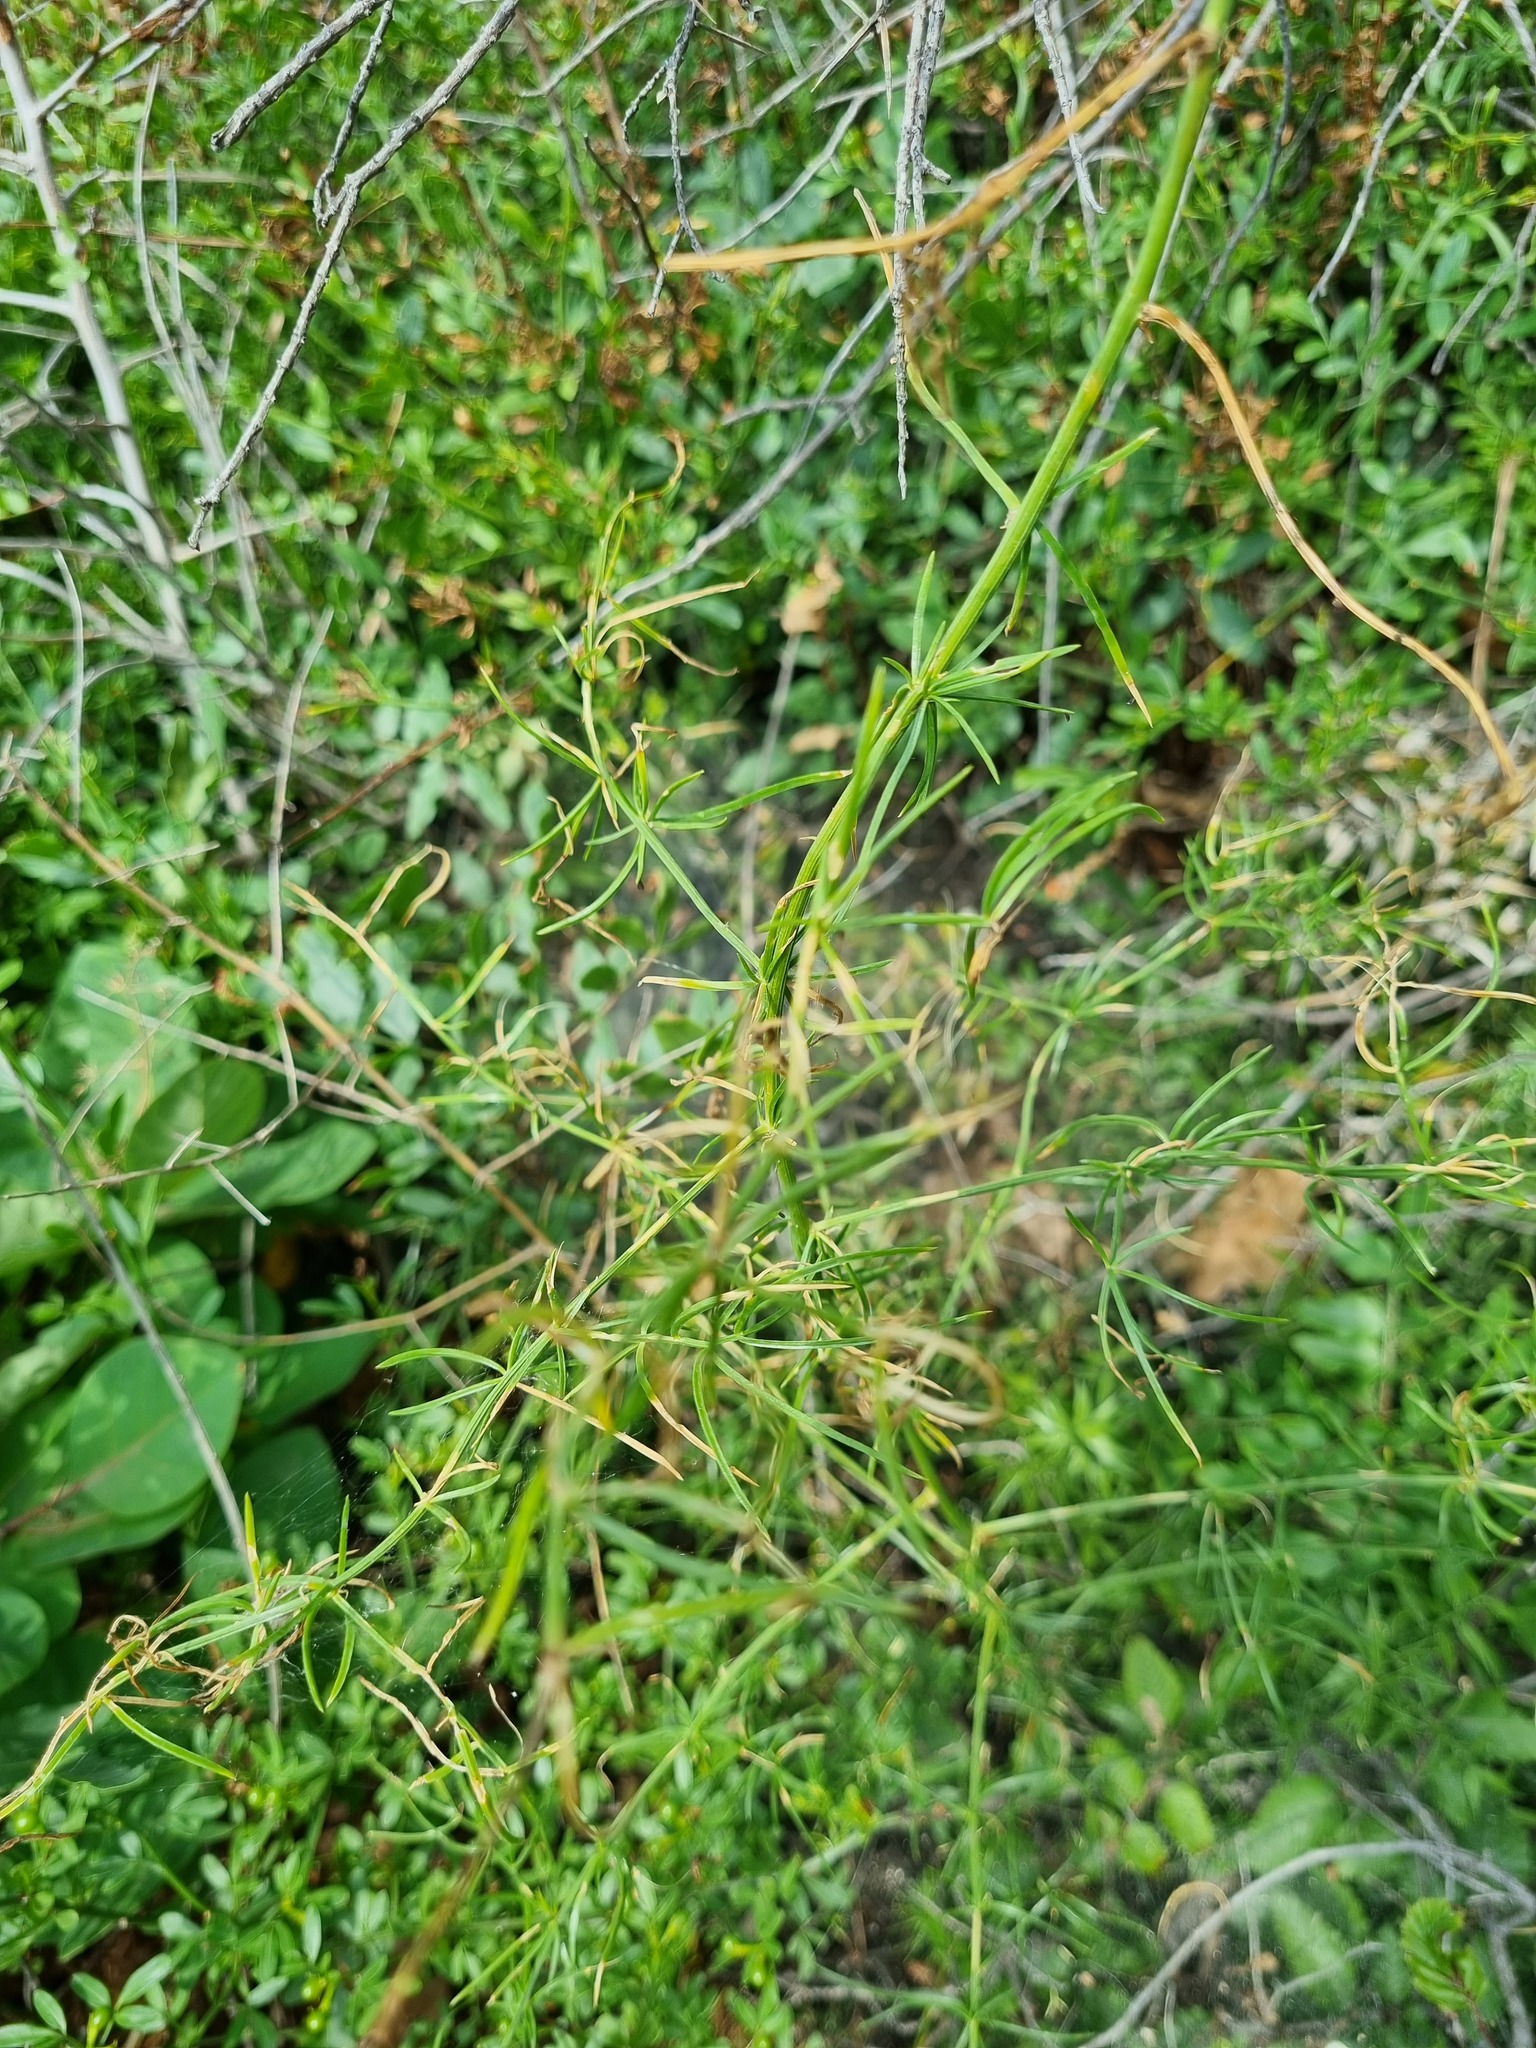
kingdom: Plantae
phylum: Tracheophyta
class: Liliopsida
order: Asparagales
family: Asparagaceae
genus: Asparagus
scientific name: Asparagus verticillatus
